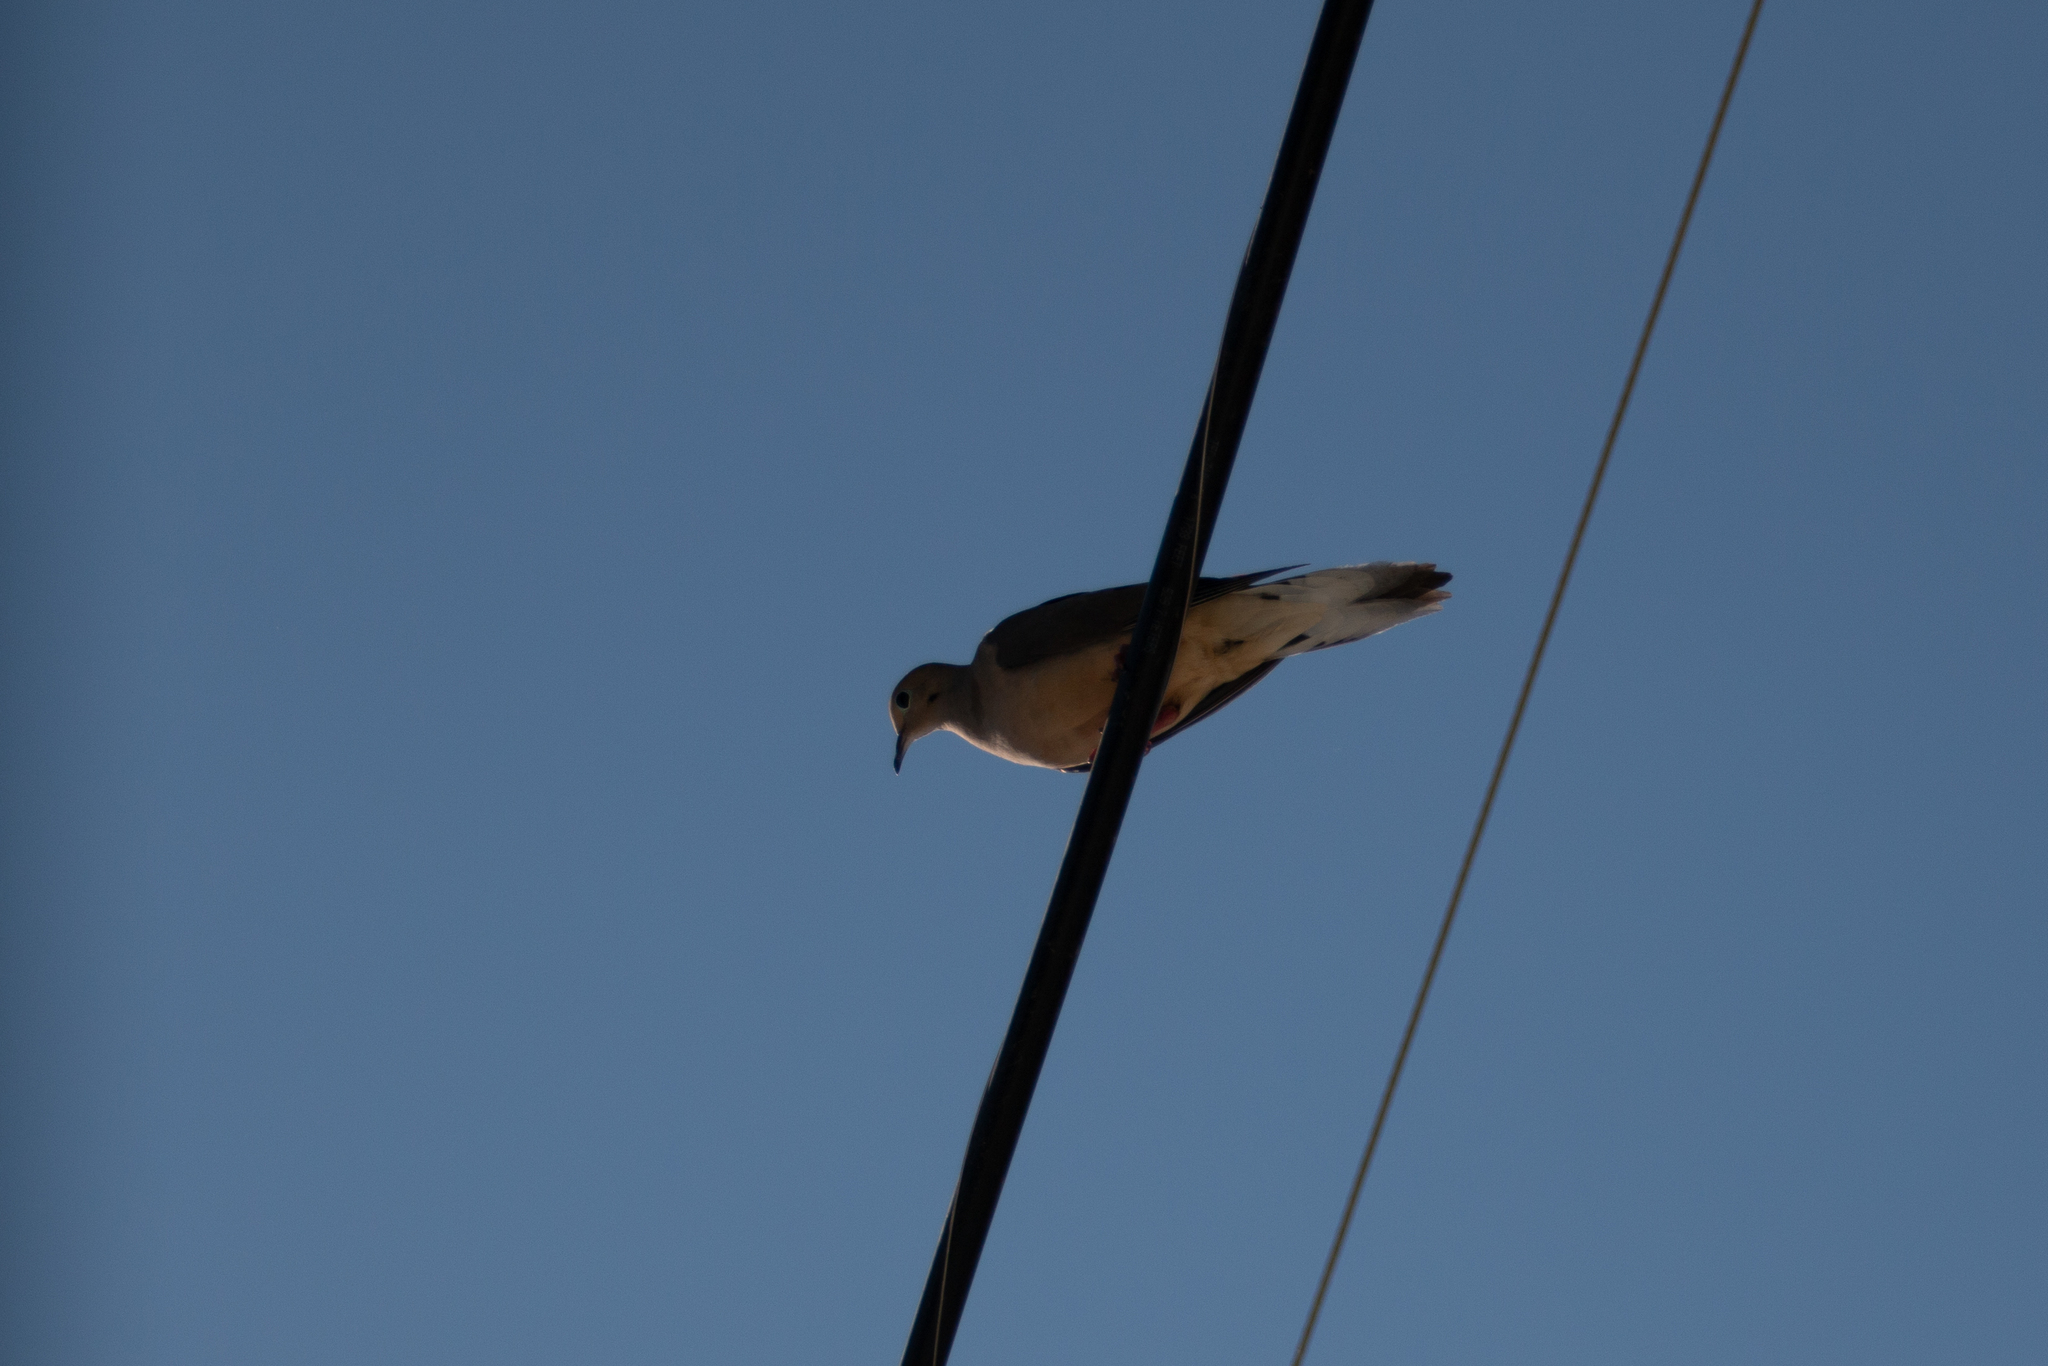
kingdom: Animalia
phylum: Chordata
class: Aves
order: Columbiformes
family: Columbidae
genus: Zenaida
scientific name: Zenaida macroura
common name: Mourning dove
